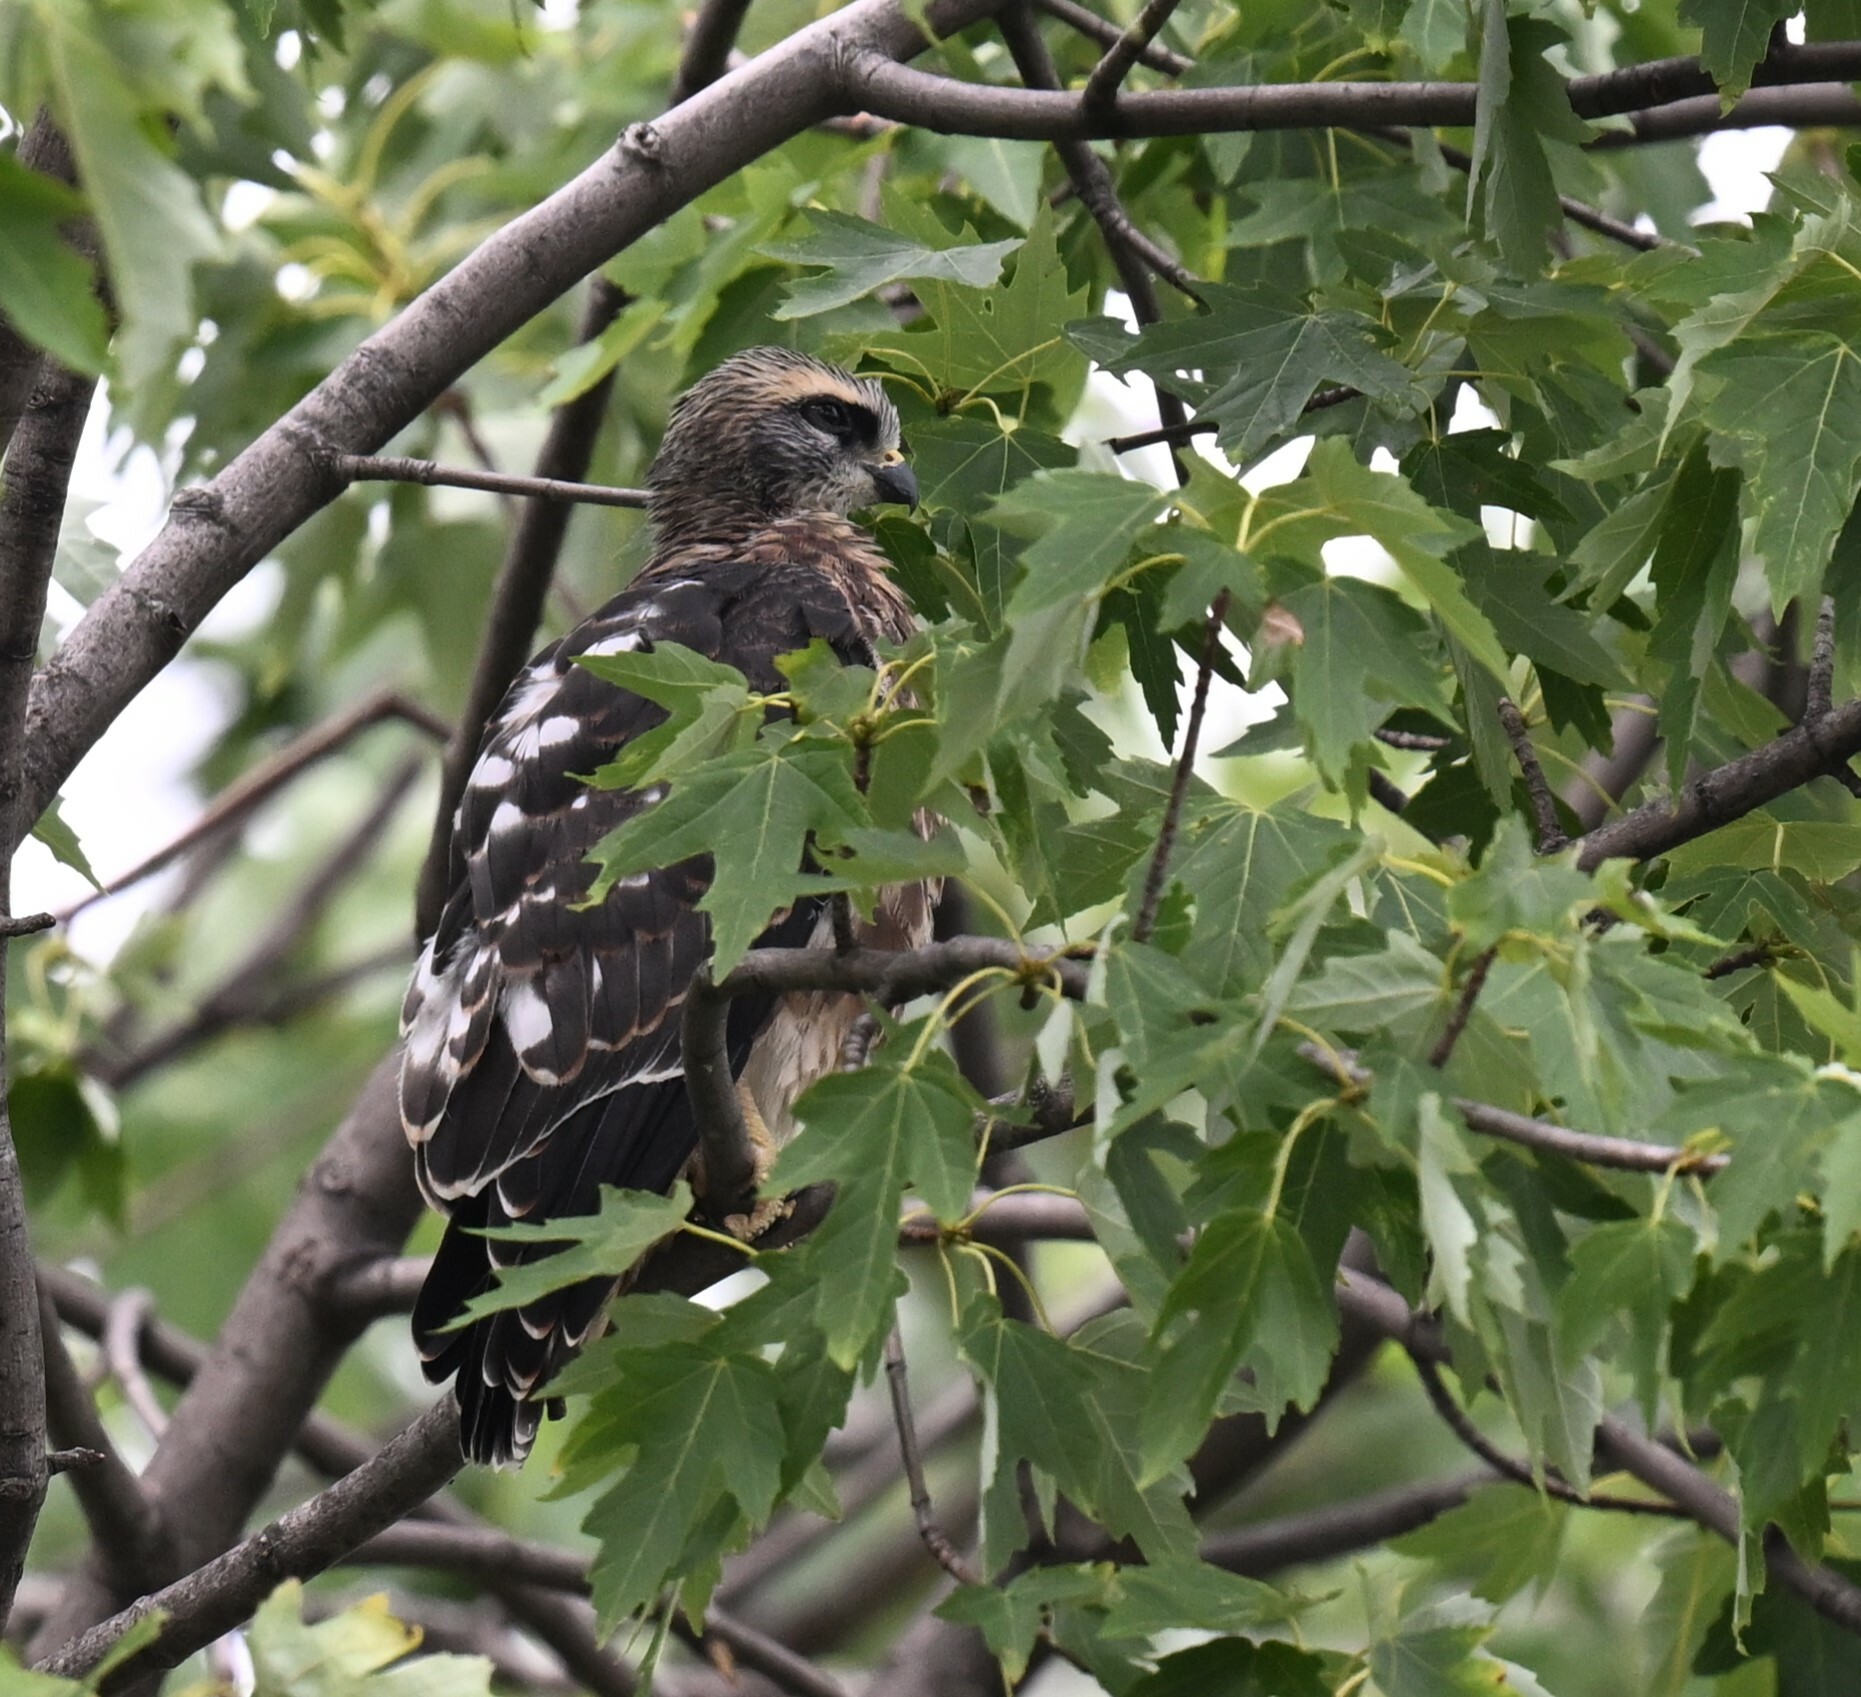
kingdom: Animalia
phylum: Chordata
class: Aves
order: Accipitriformes
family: Accipitridae
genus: Ictinia
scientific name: Ictinia mississippiensis
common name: Mississippi kite
